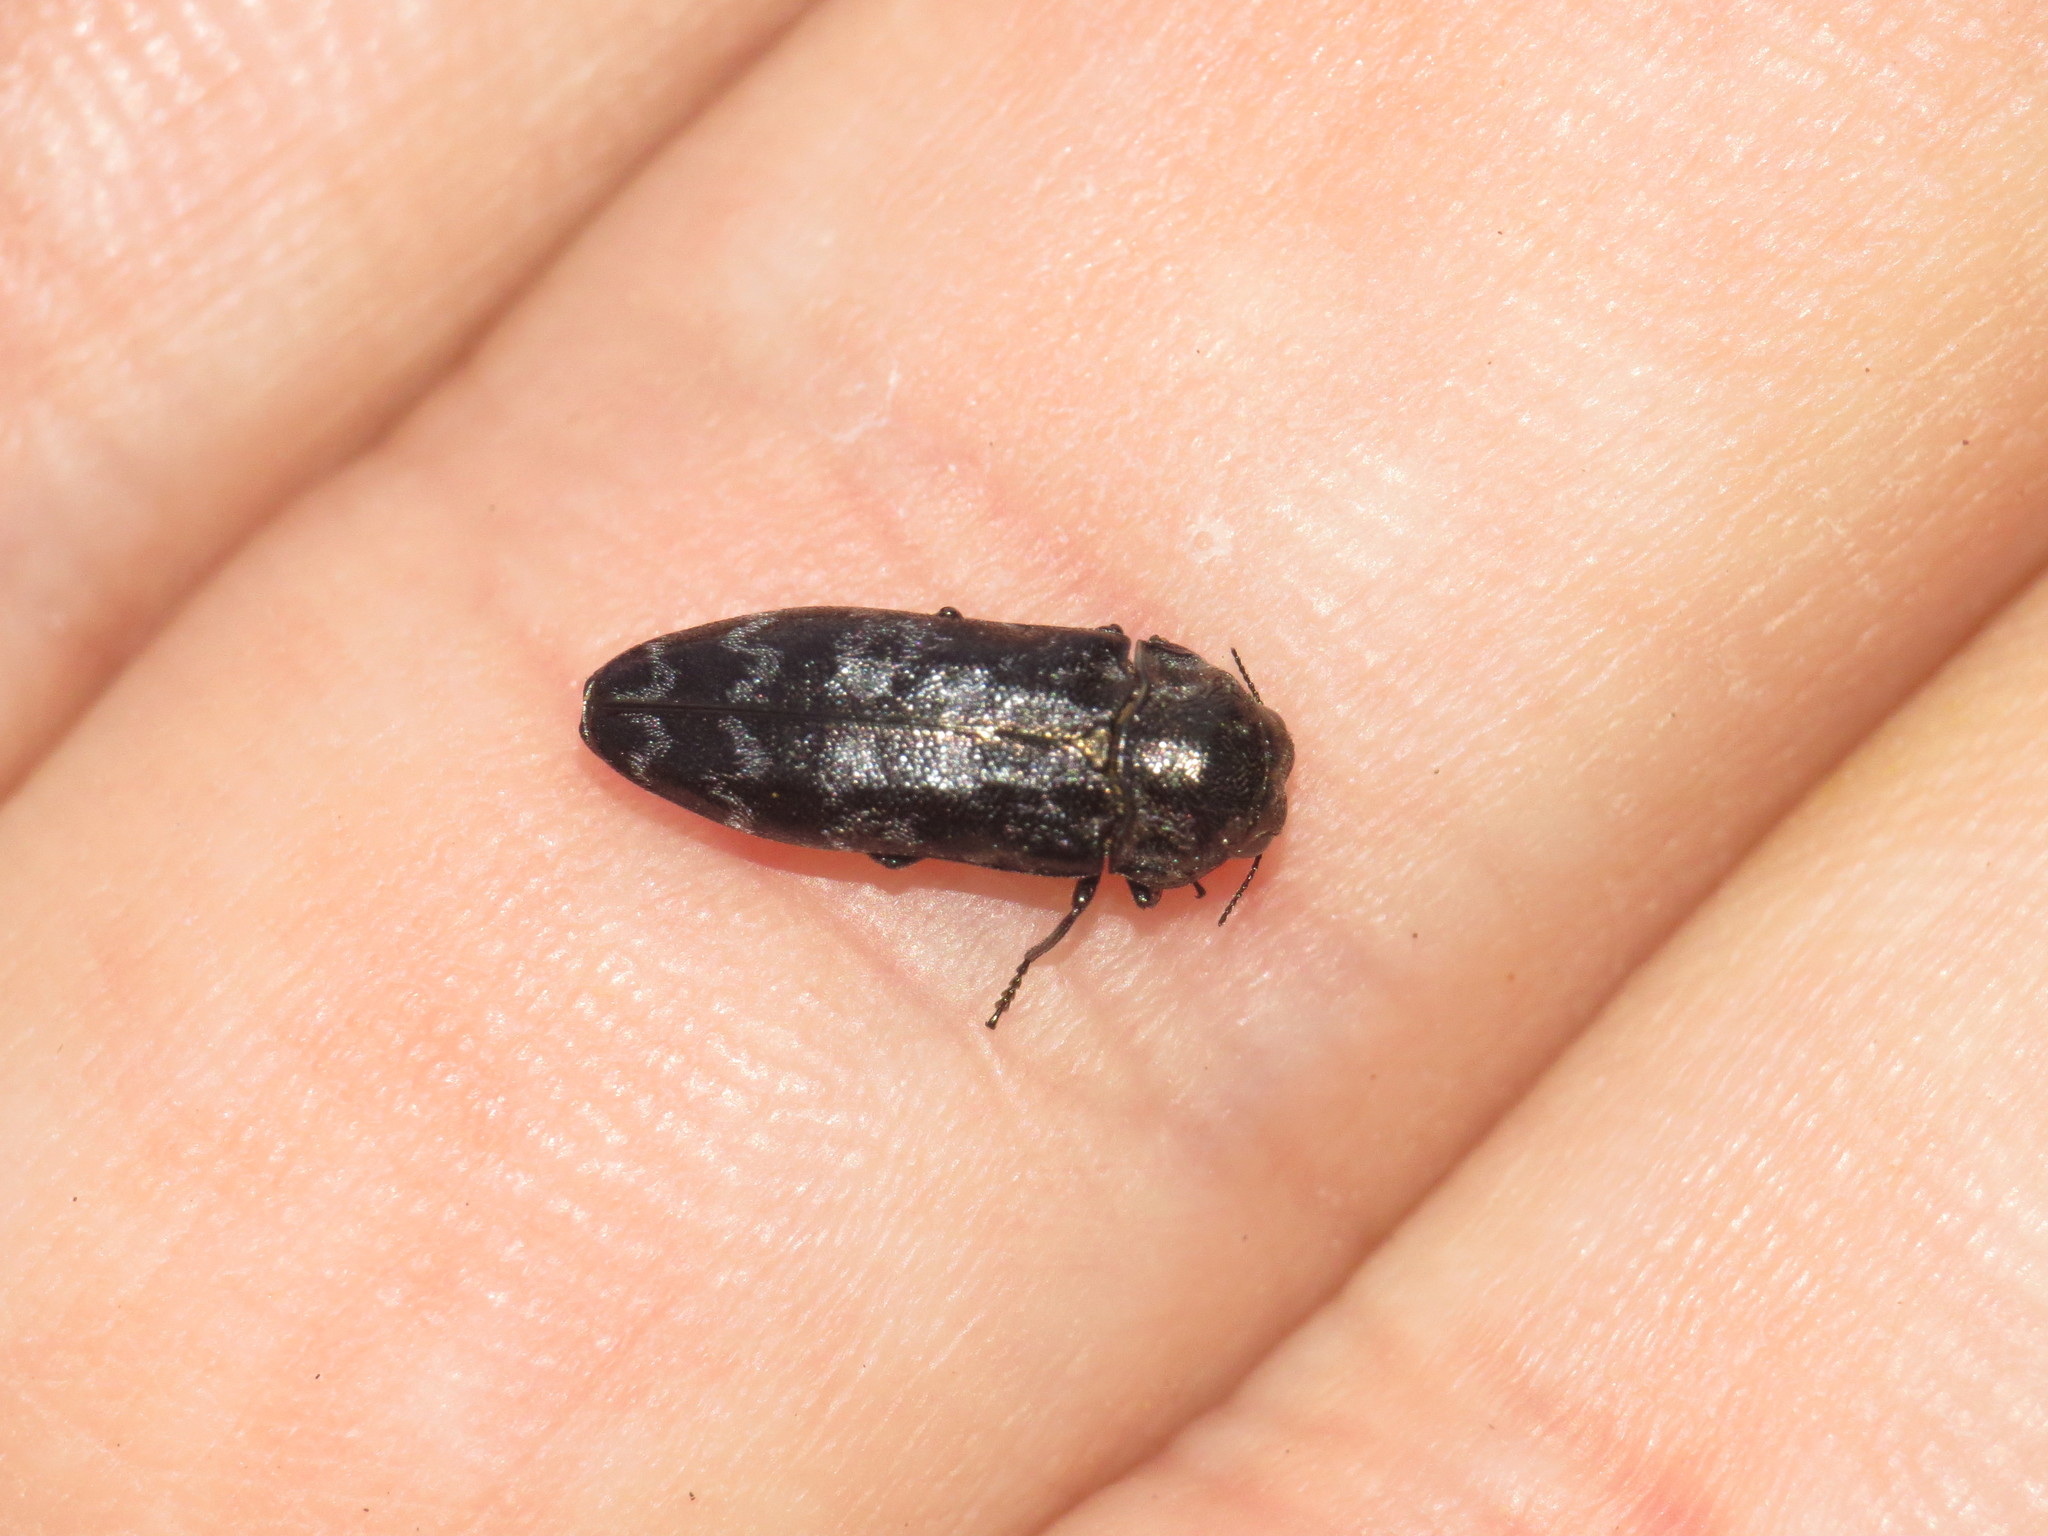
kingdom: Animalia
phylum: Arthropoda
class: Insecta
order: Coleoptera
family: Buprestidae
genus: Coraebus
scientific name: Coraebus rubi
